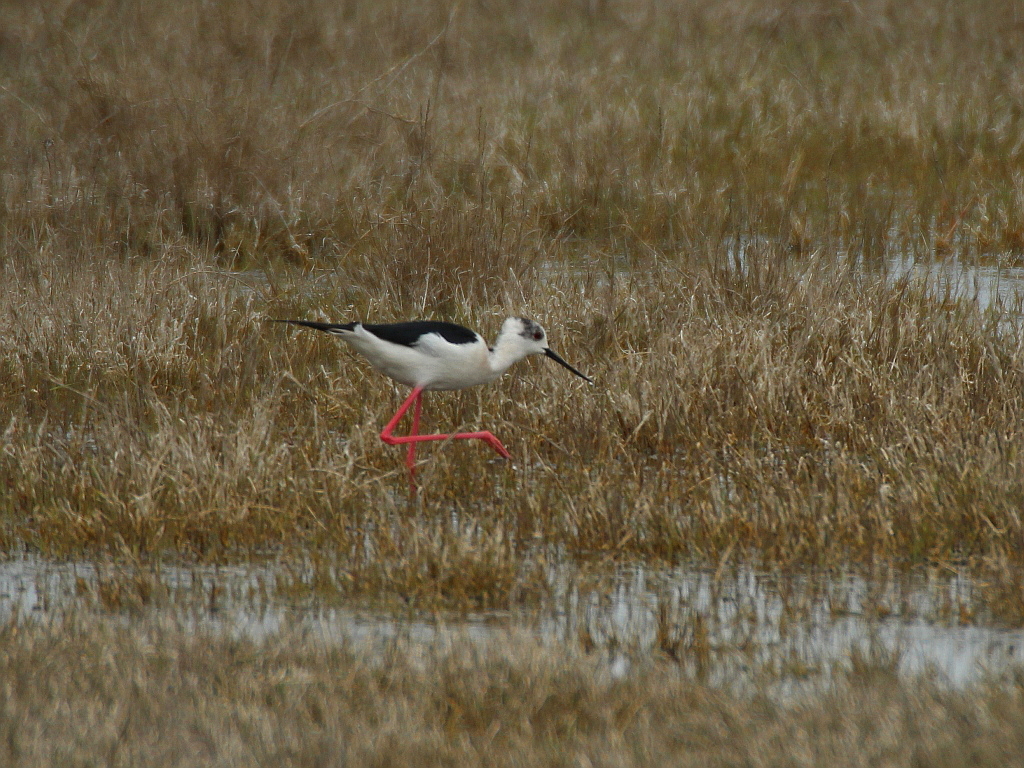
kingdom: Animalia
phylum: Chordata
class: Aves
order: Charadriiformes
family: Recurvirostridae
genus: Himantopus
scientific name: Himantopus himantopus
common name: Black-winged stilt
